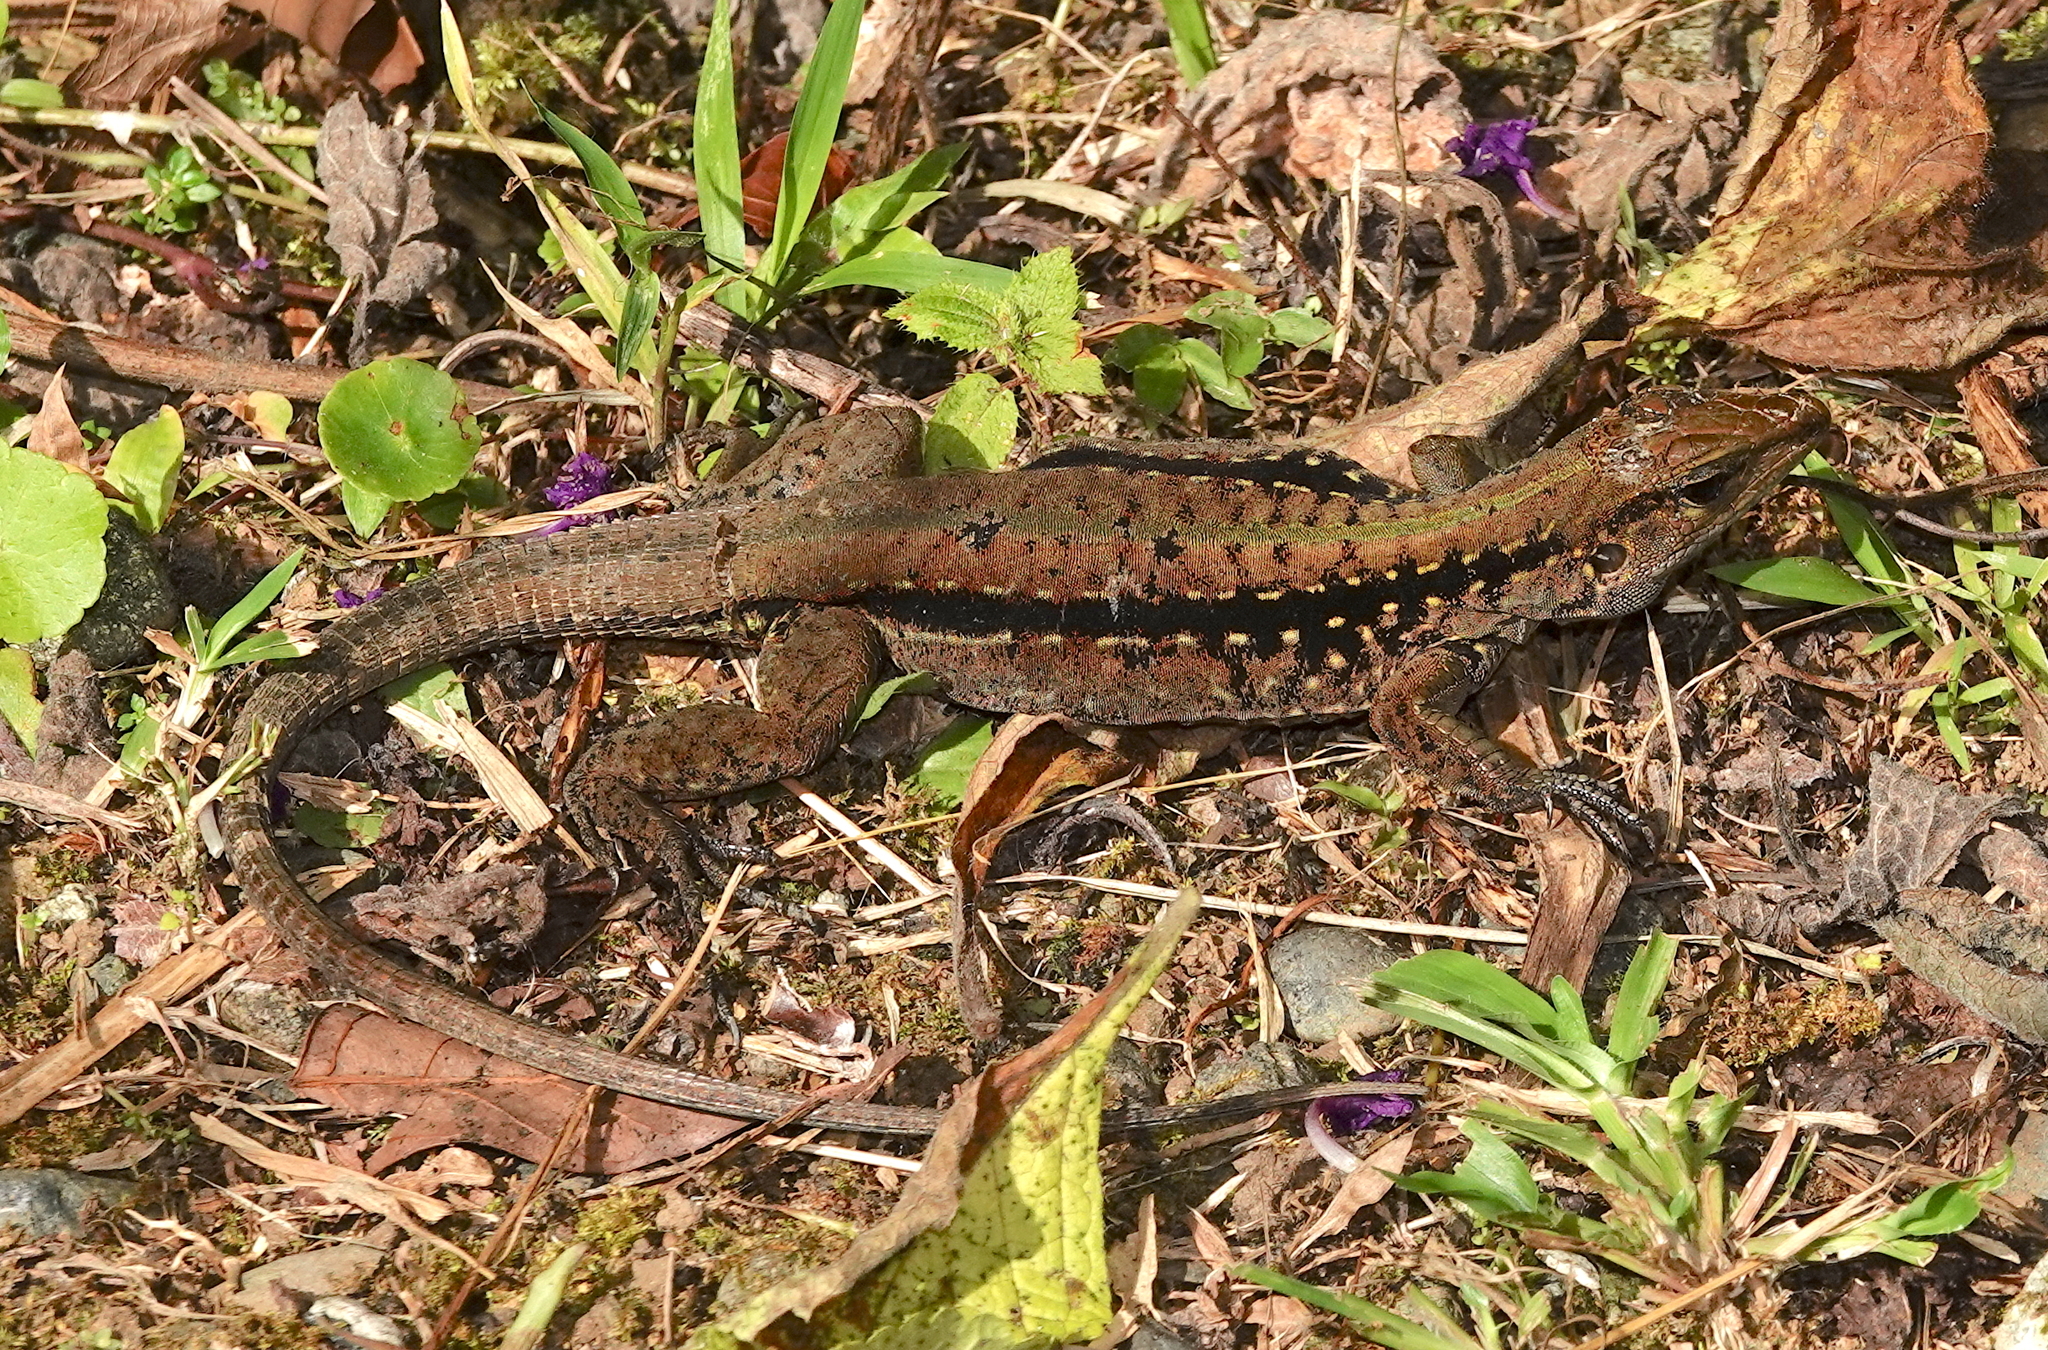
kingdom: Animalia
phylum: Chordata
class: Squamata
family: Teiidae
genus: Holcosus
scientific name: Holcosus festivus
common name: Middle american ameiva
